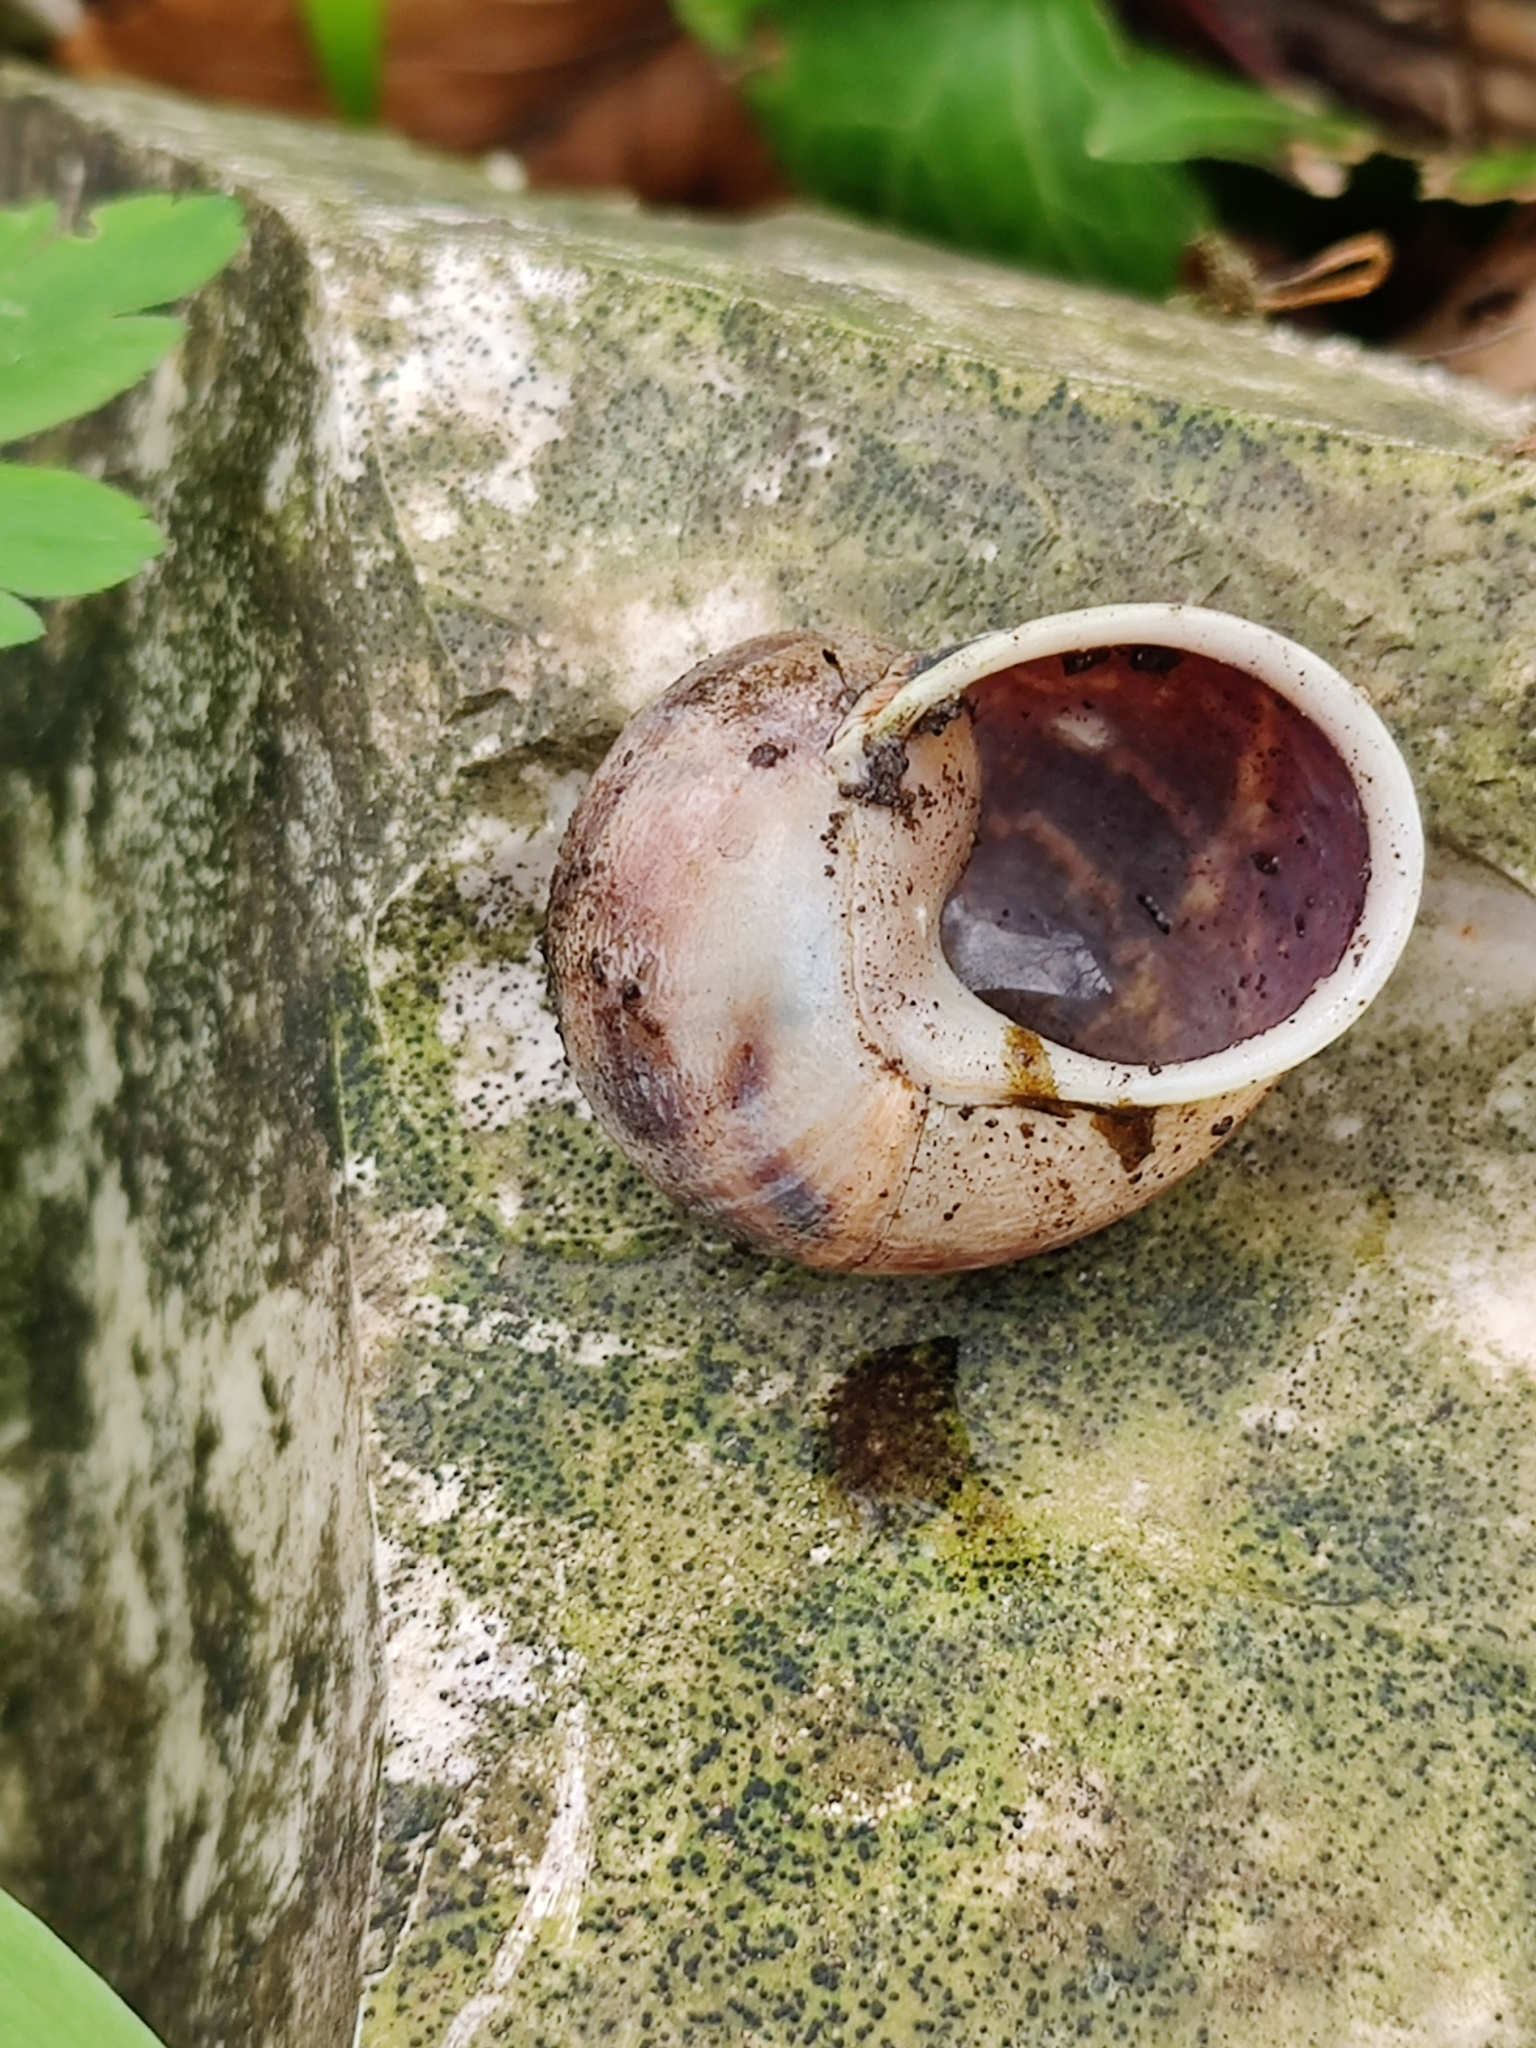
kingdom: Animalia
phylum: Mollusca
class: Gastropoda
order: Stylommatophora
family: Helicidae
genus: Cornu
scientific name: Cornu aspersum
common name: Brown garden snail
